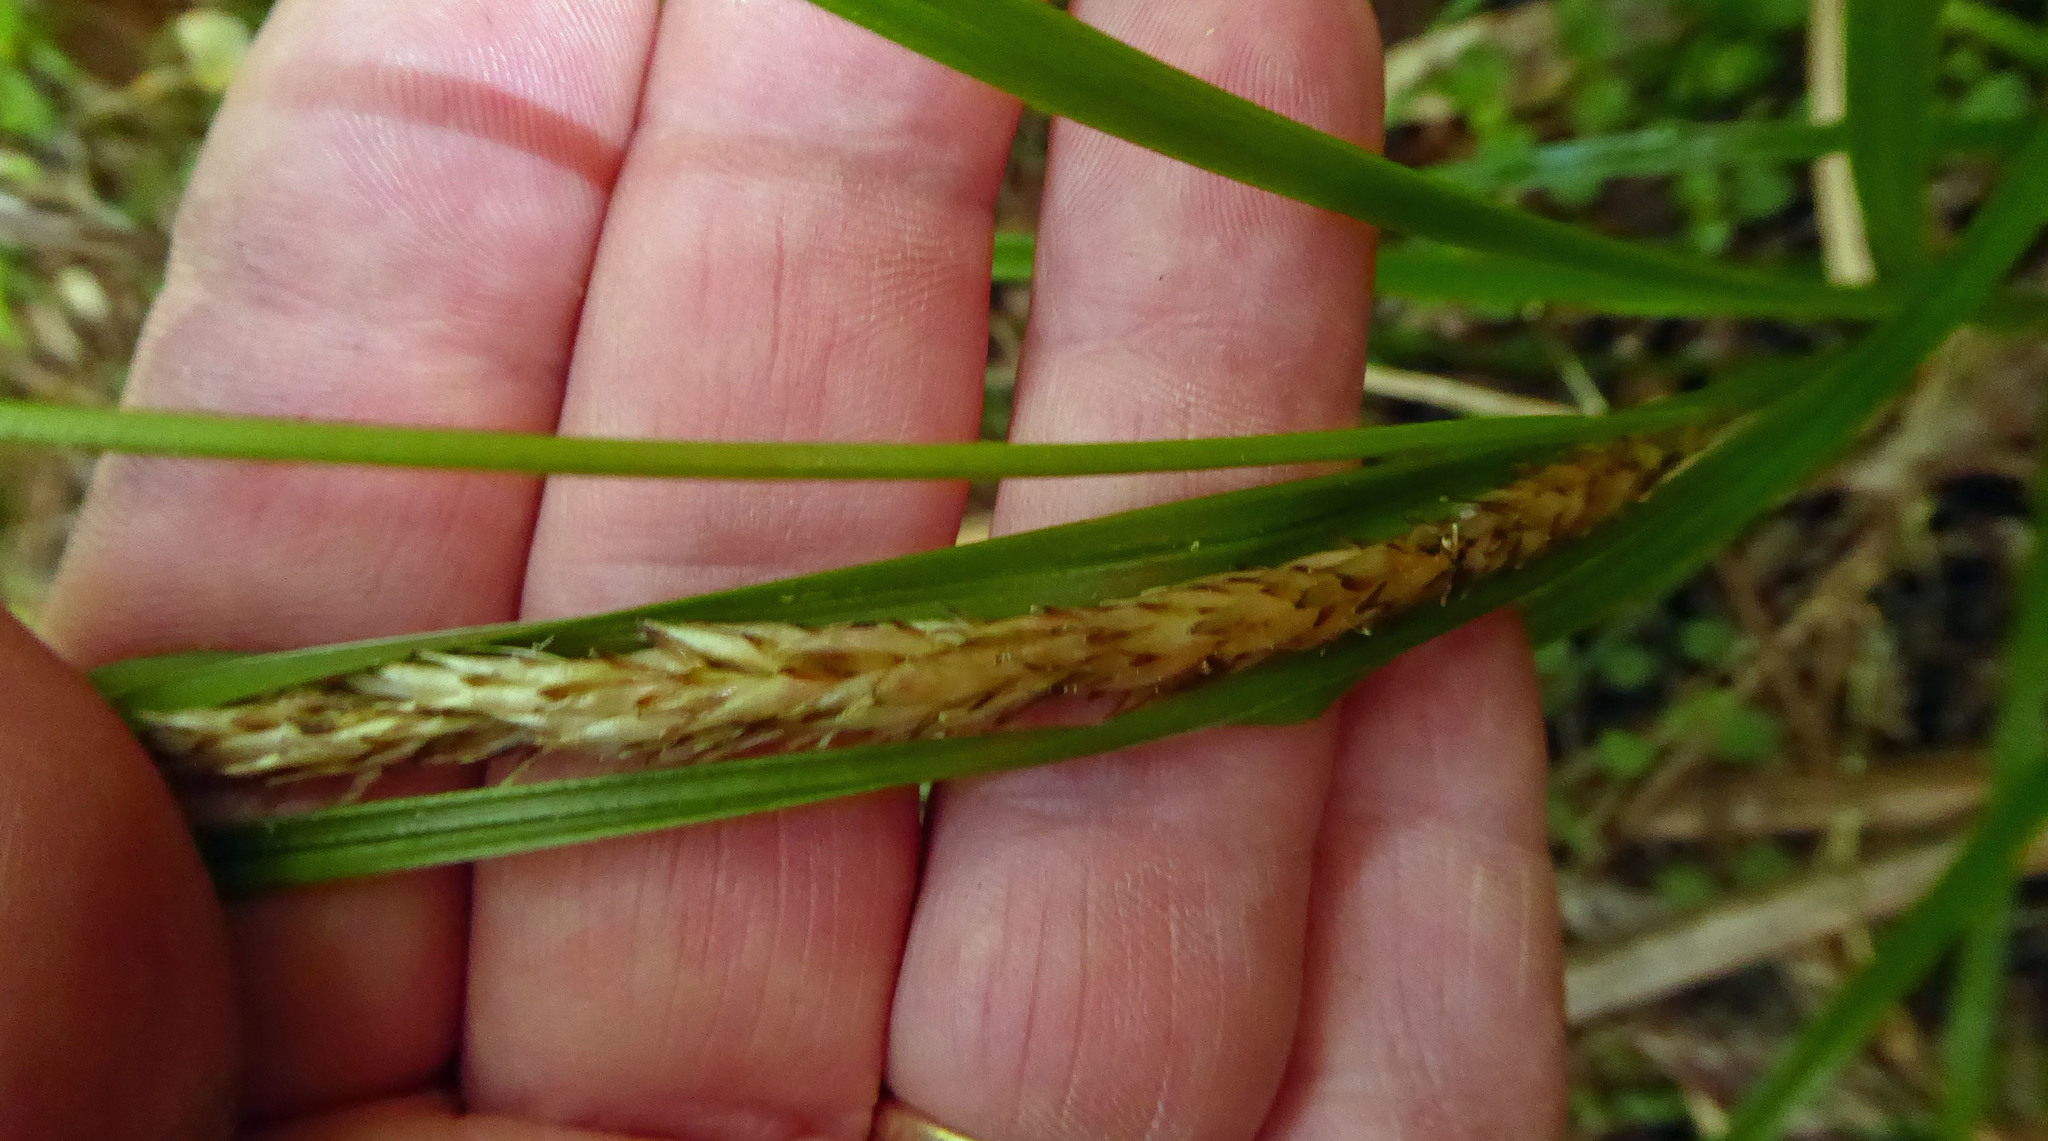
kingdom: Plantae
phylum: Tracheophyta
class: Liliopsida
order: Poales
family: Cyperaceae
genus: Carex
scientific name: Carex uncinata
